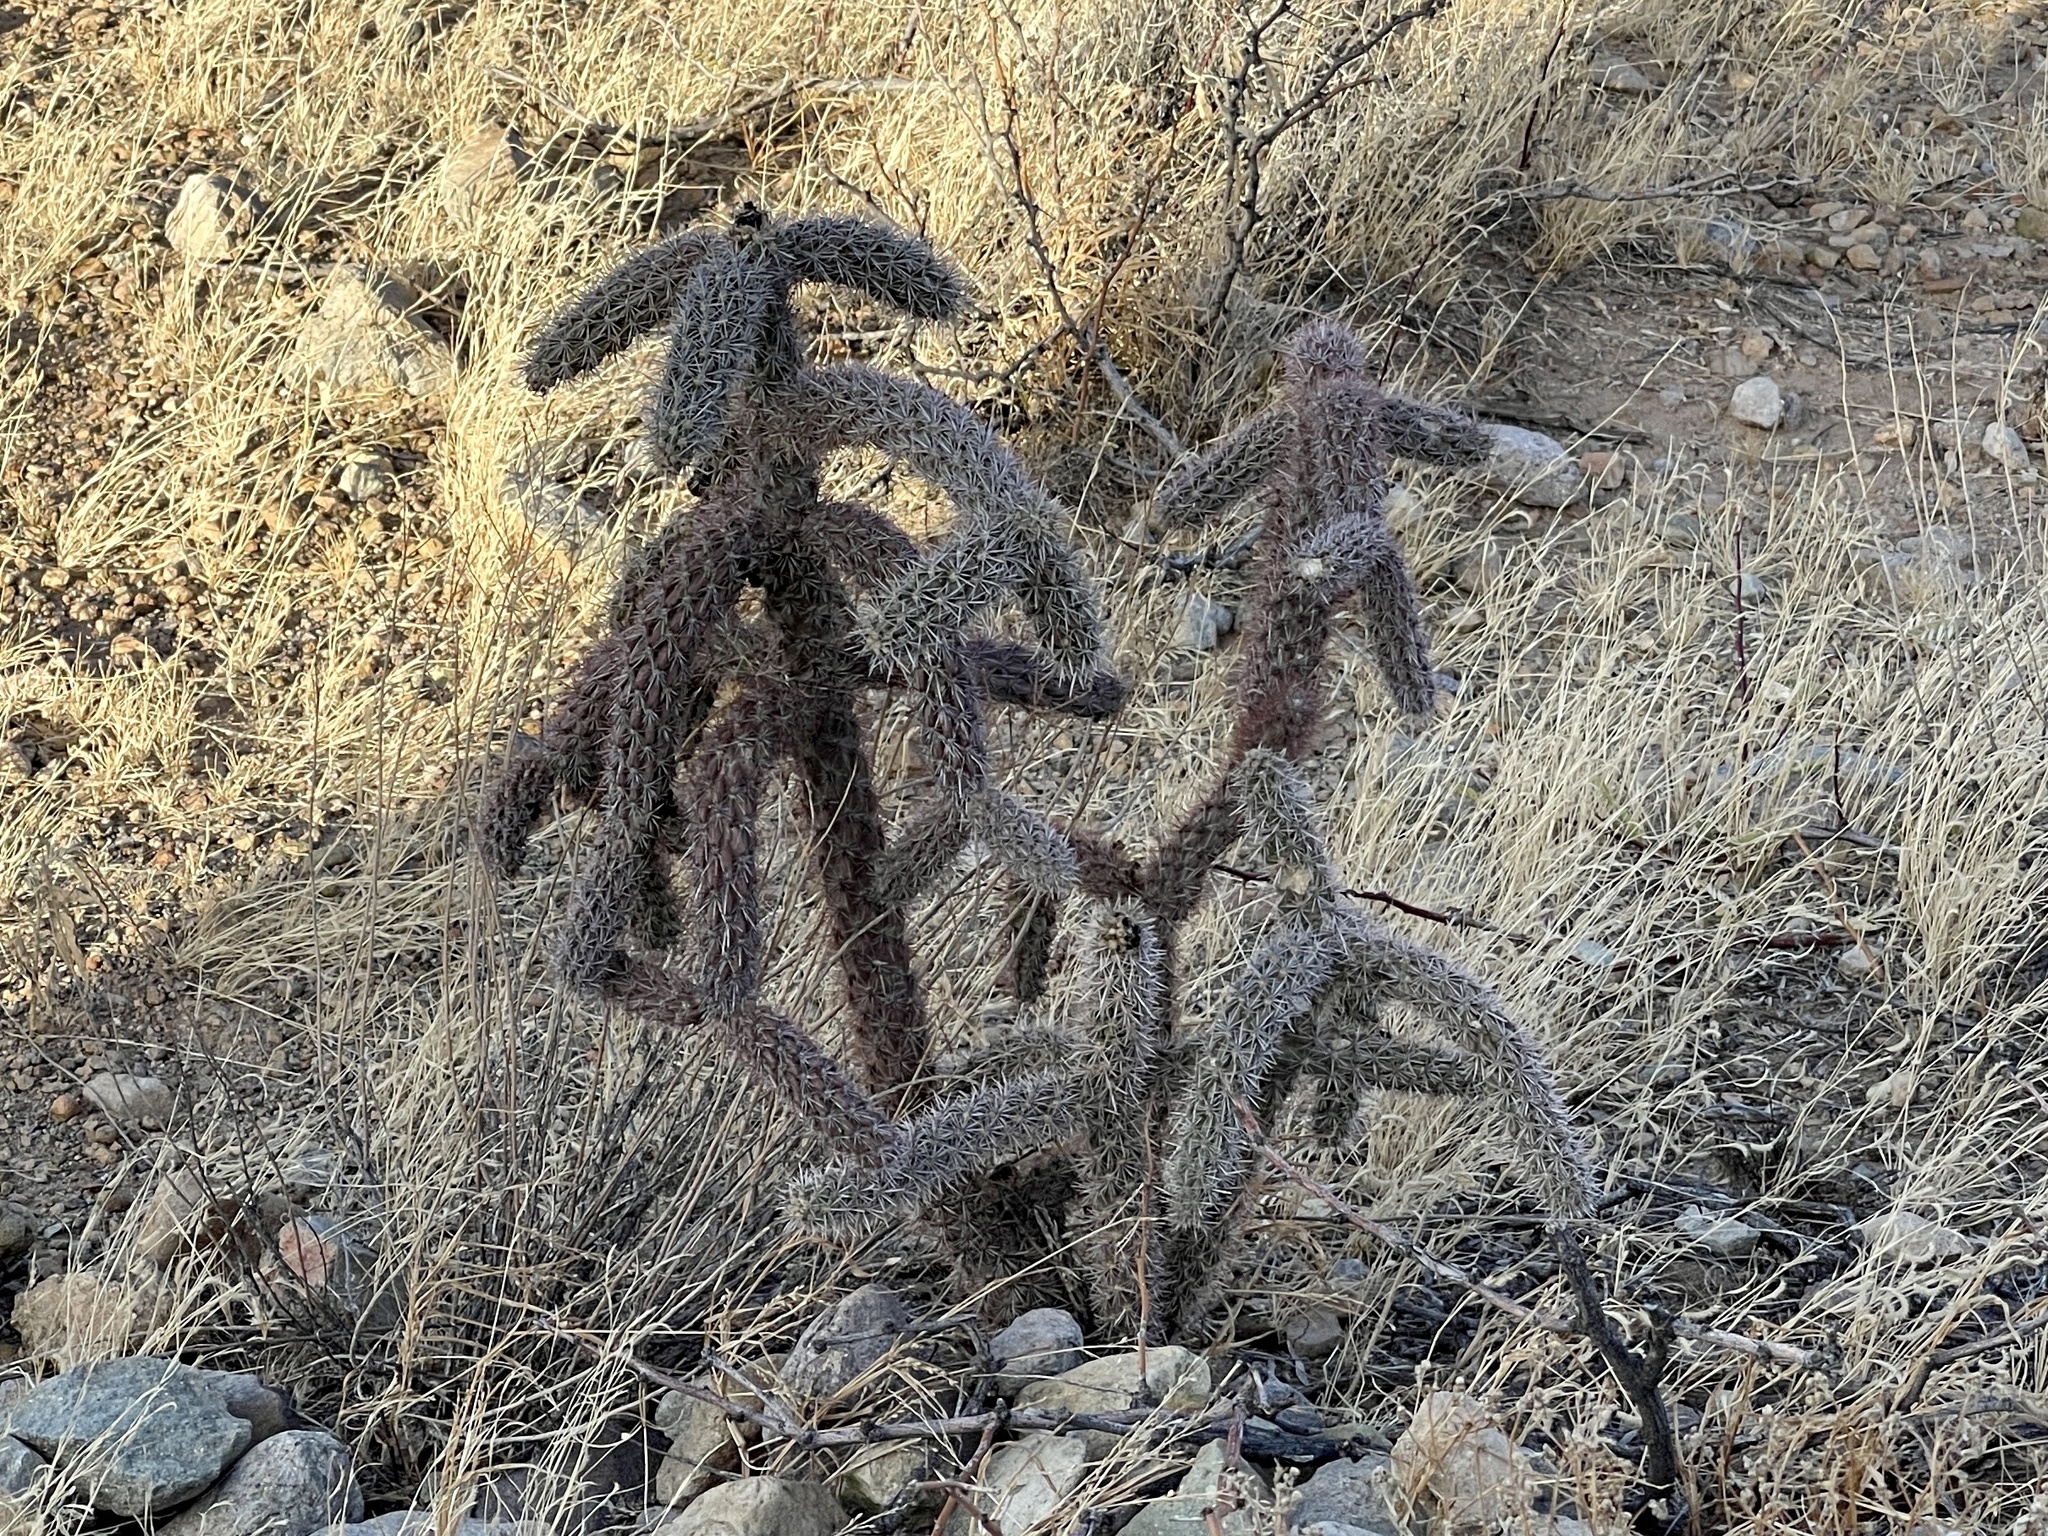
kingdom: Plantae
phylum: Tracheophyta
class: Magnoliopsida
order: Caryophyllales
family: Cactaceae
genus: Cylindropuntia
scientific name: Cylindropuntia imbricata
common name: Candelabrum cactus
